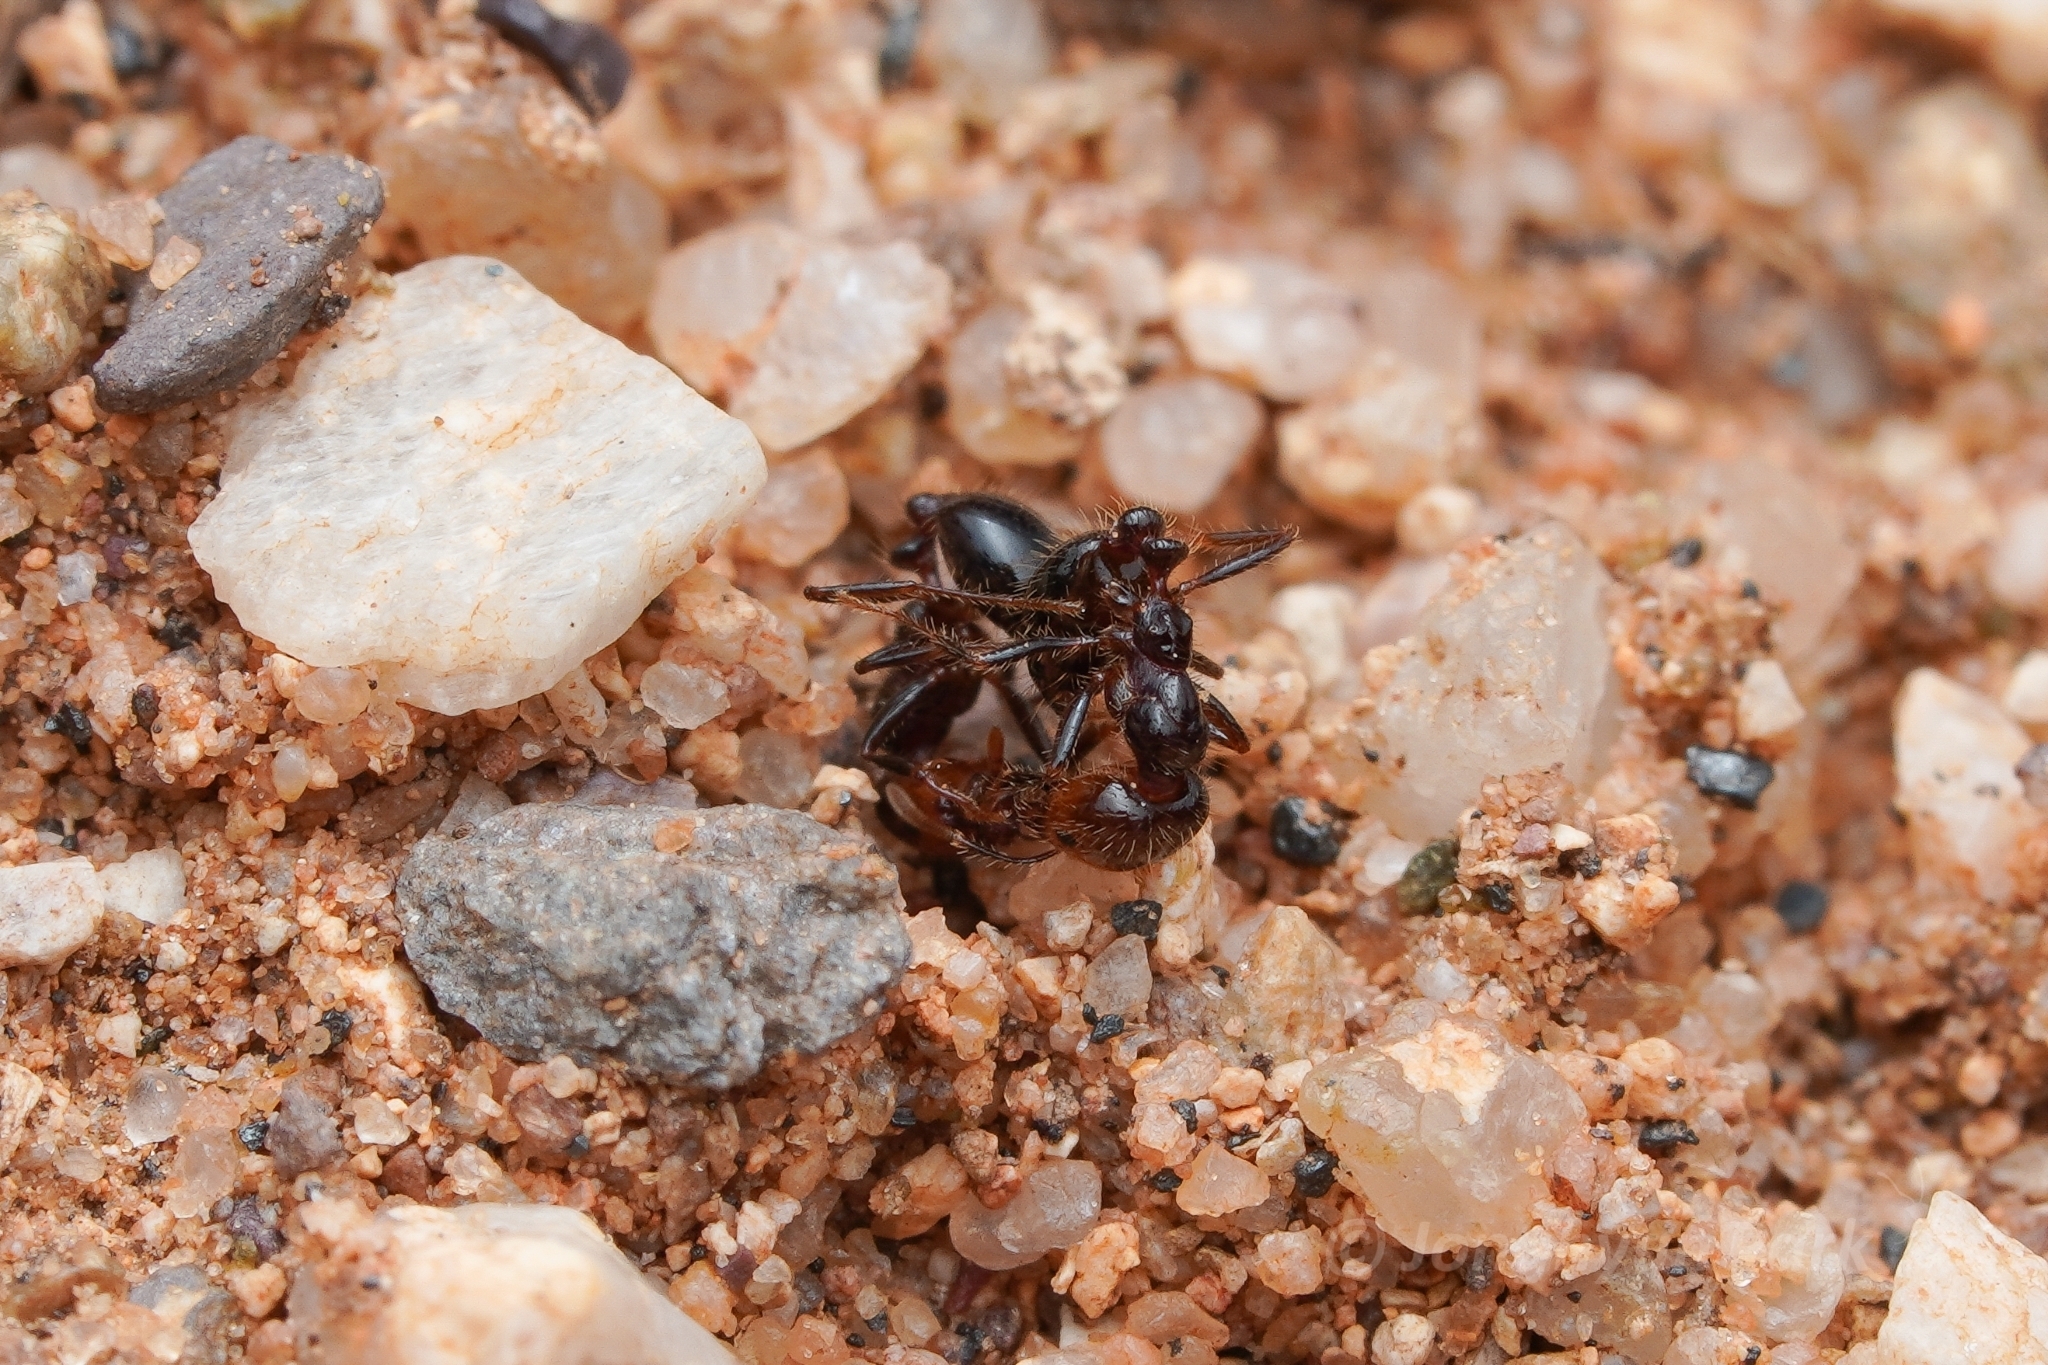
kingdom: Animalia
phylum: Arthropoda
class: Insecta
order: Hymenoptera
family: Formicidae
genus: Solenopsis
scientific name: Solenopsis xyloni
